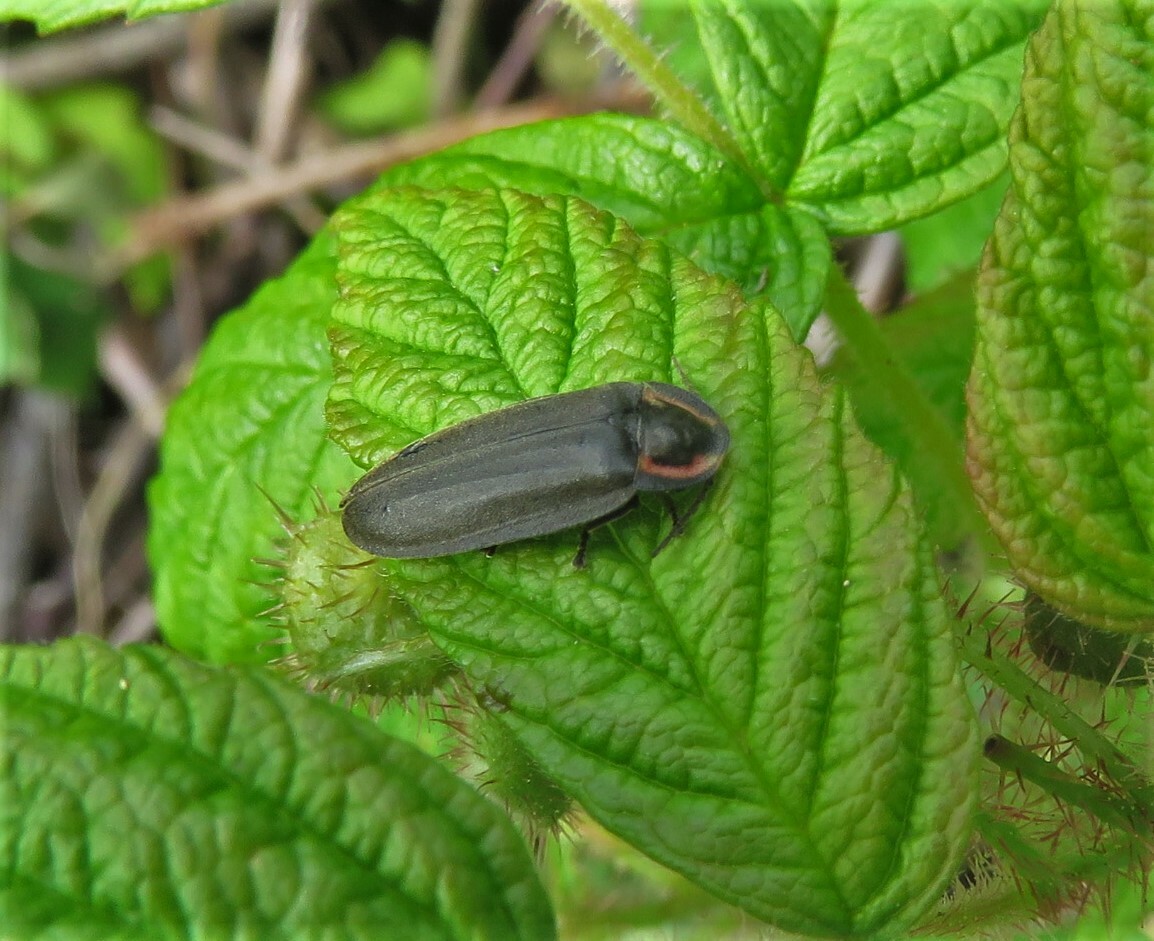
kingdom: Animalia
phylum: Arthropoda
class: Insecta
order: Coleoptera
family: Lampyridae
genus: Photinus
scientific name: Photinus corrusca
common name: Winter firefly
